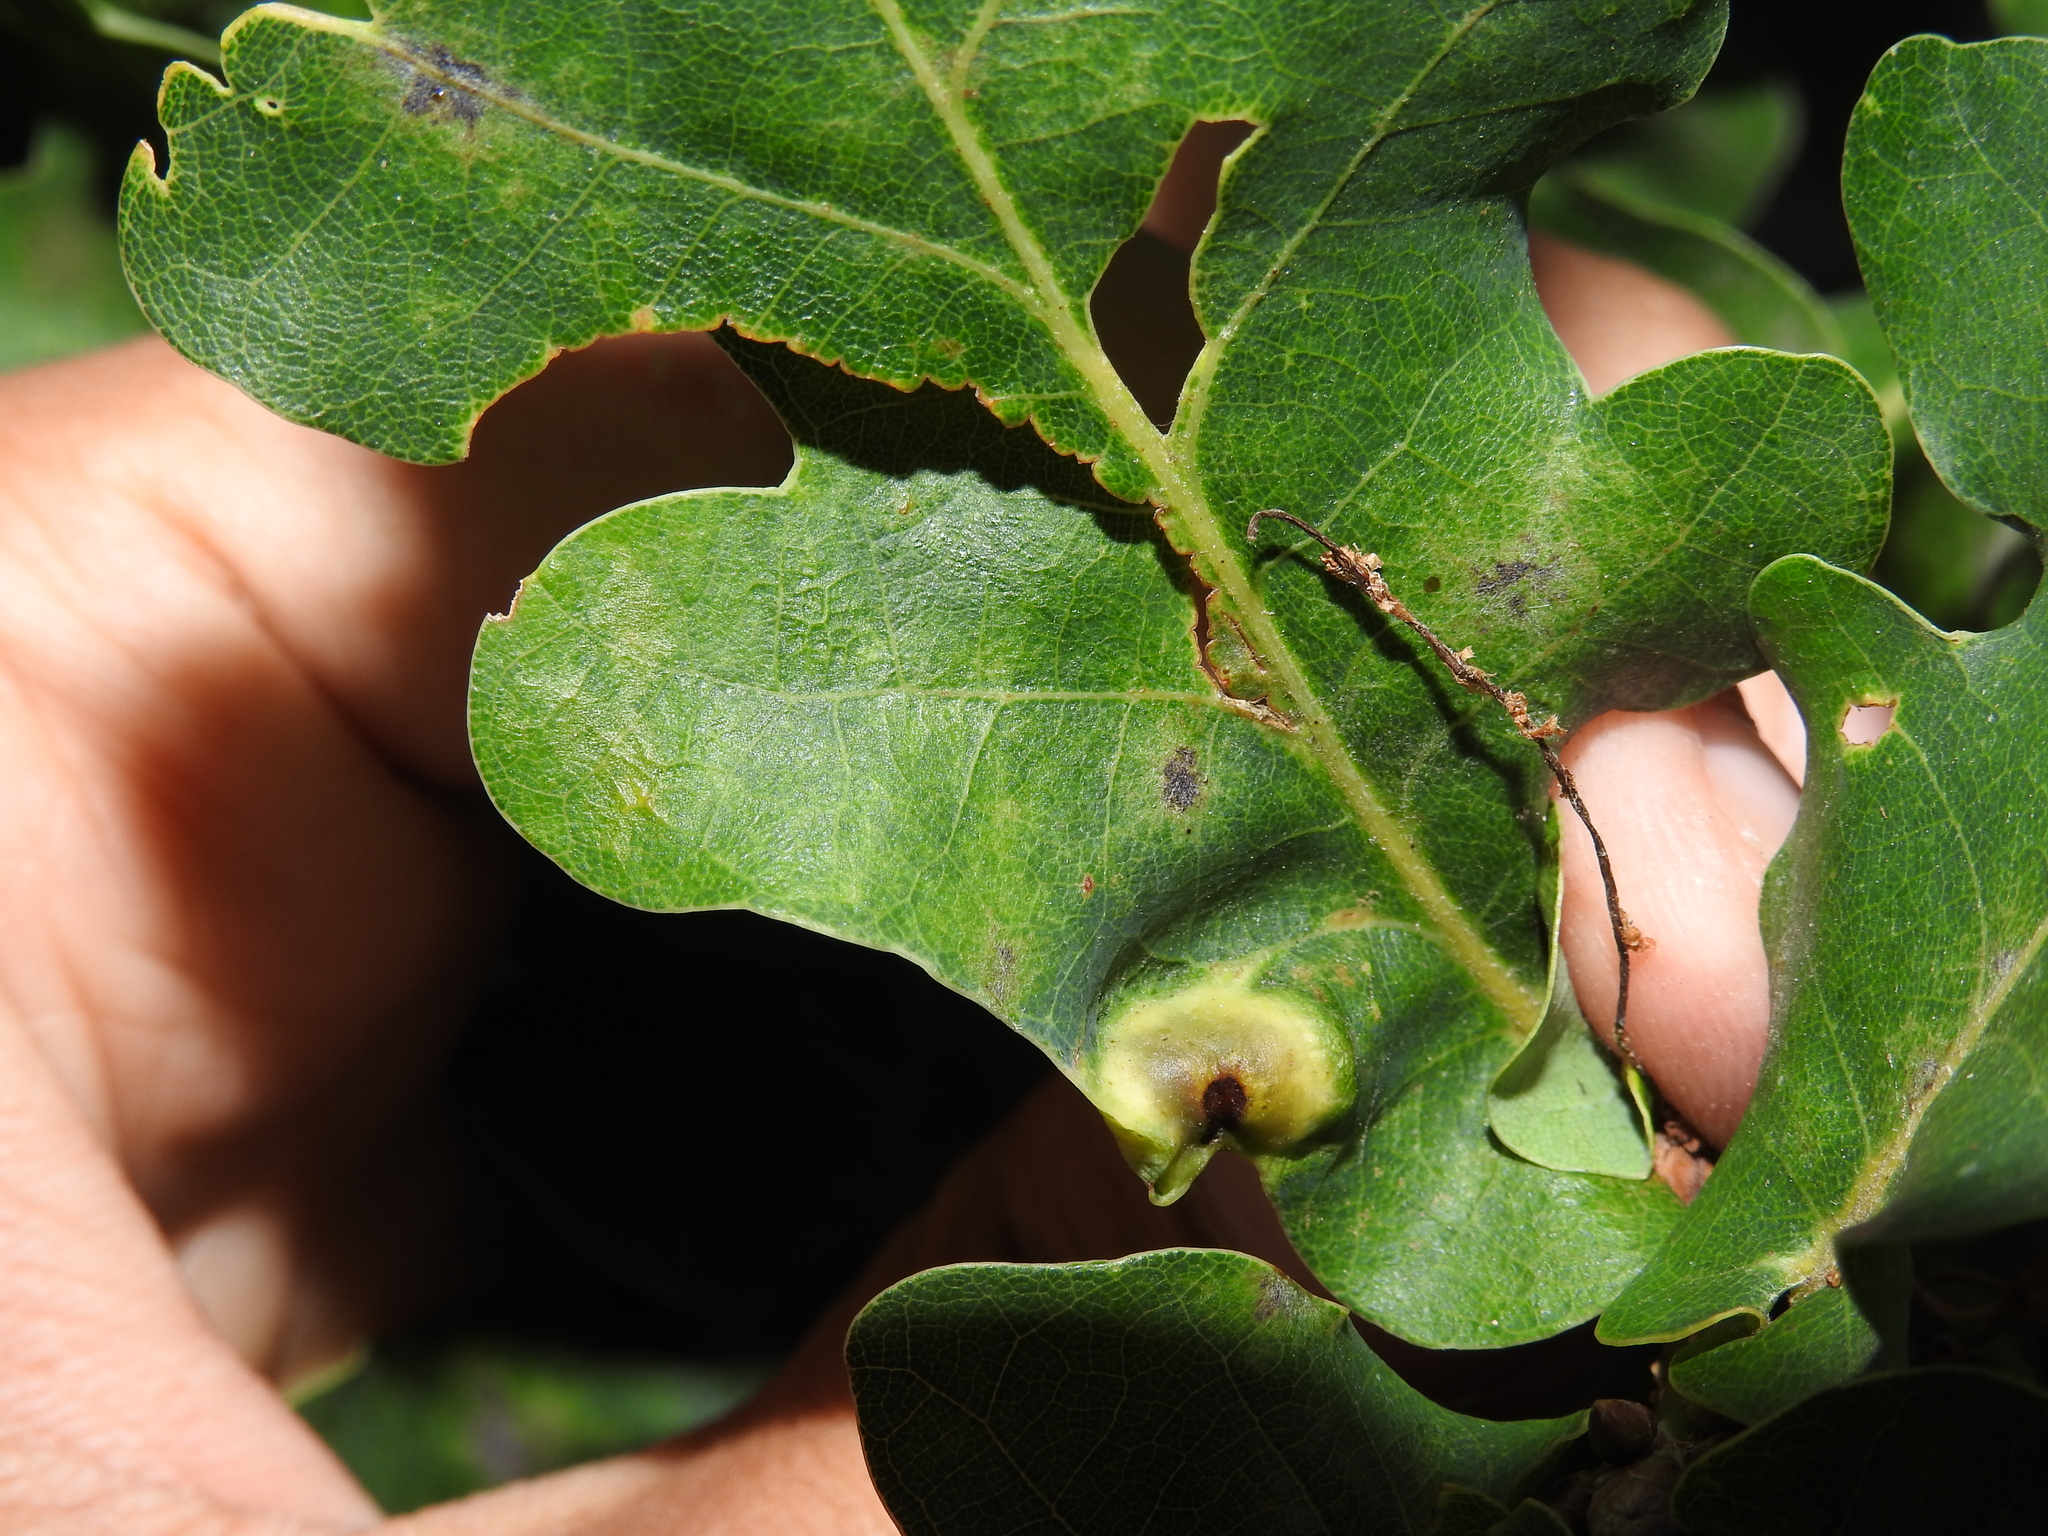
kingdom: Animalia
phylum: Arthropoda
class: Insecta
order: Hymenoptera
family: Cynipidae
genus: Andricus
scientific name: Andricus curvator
